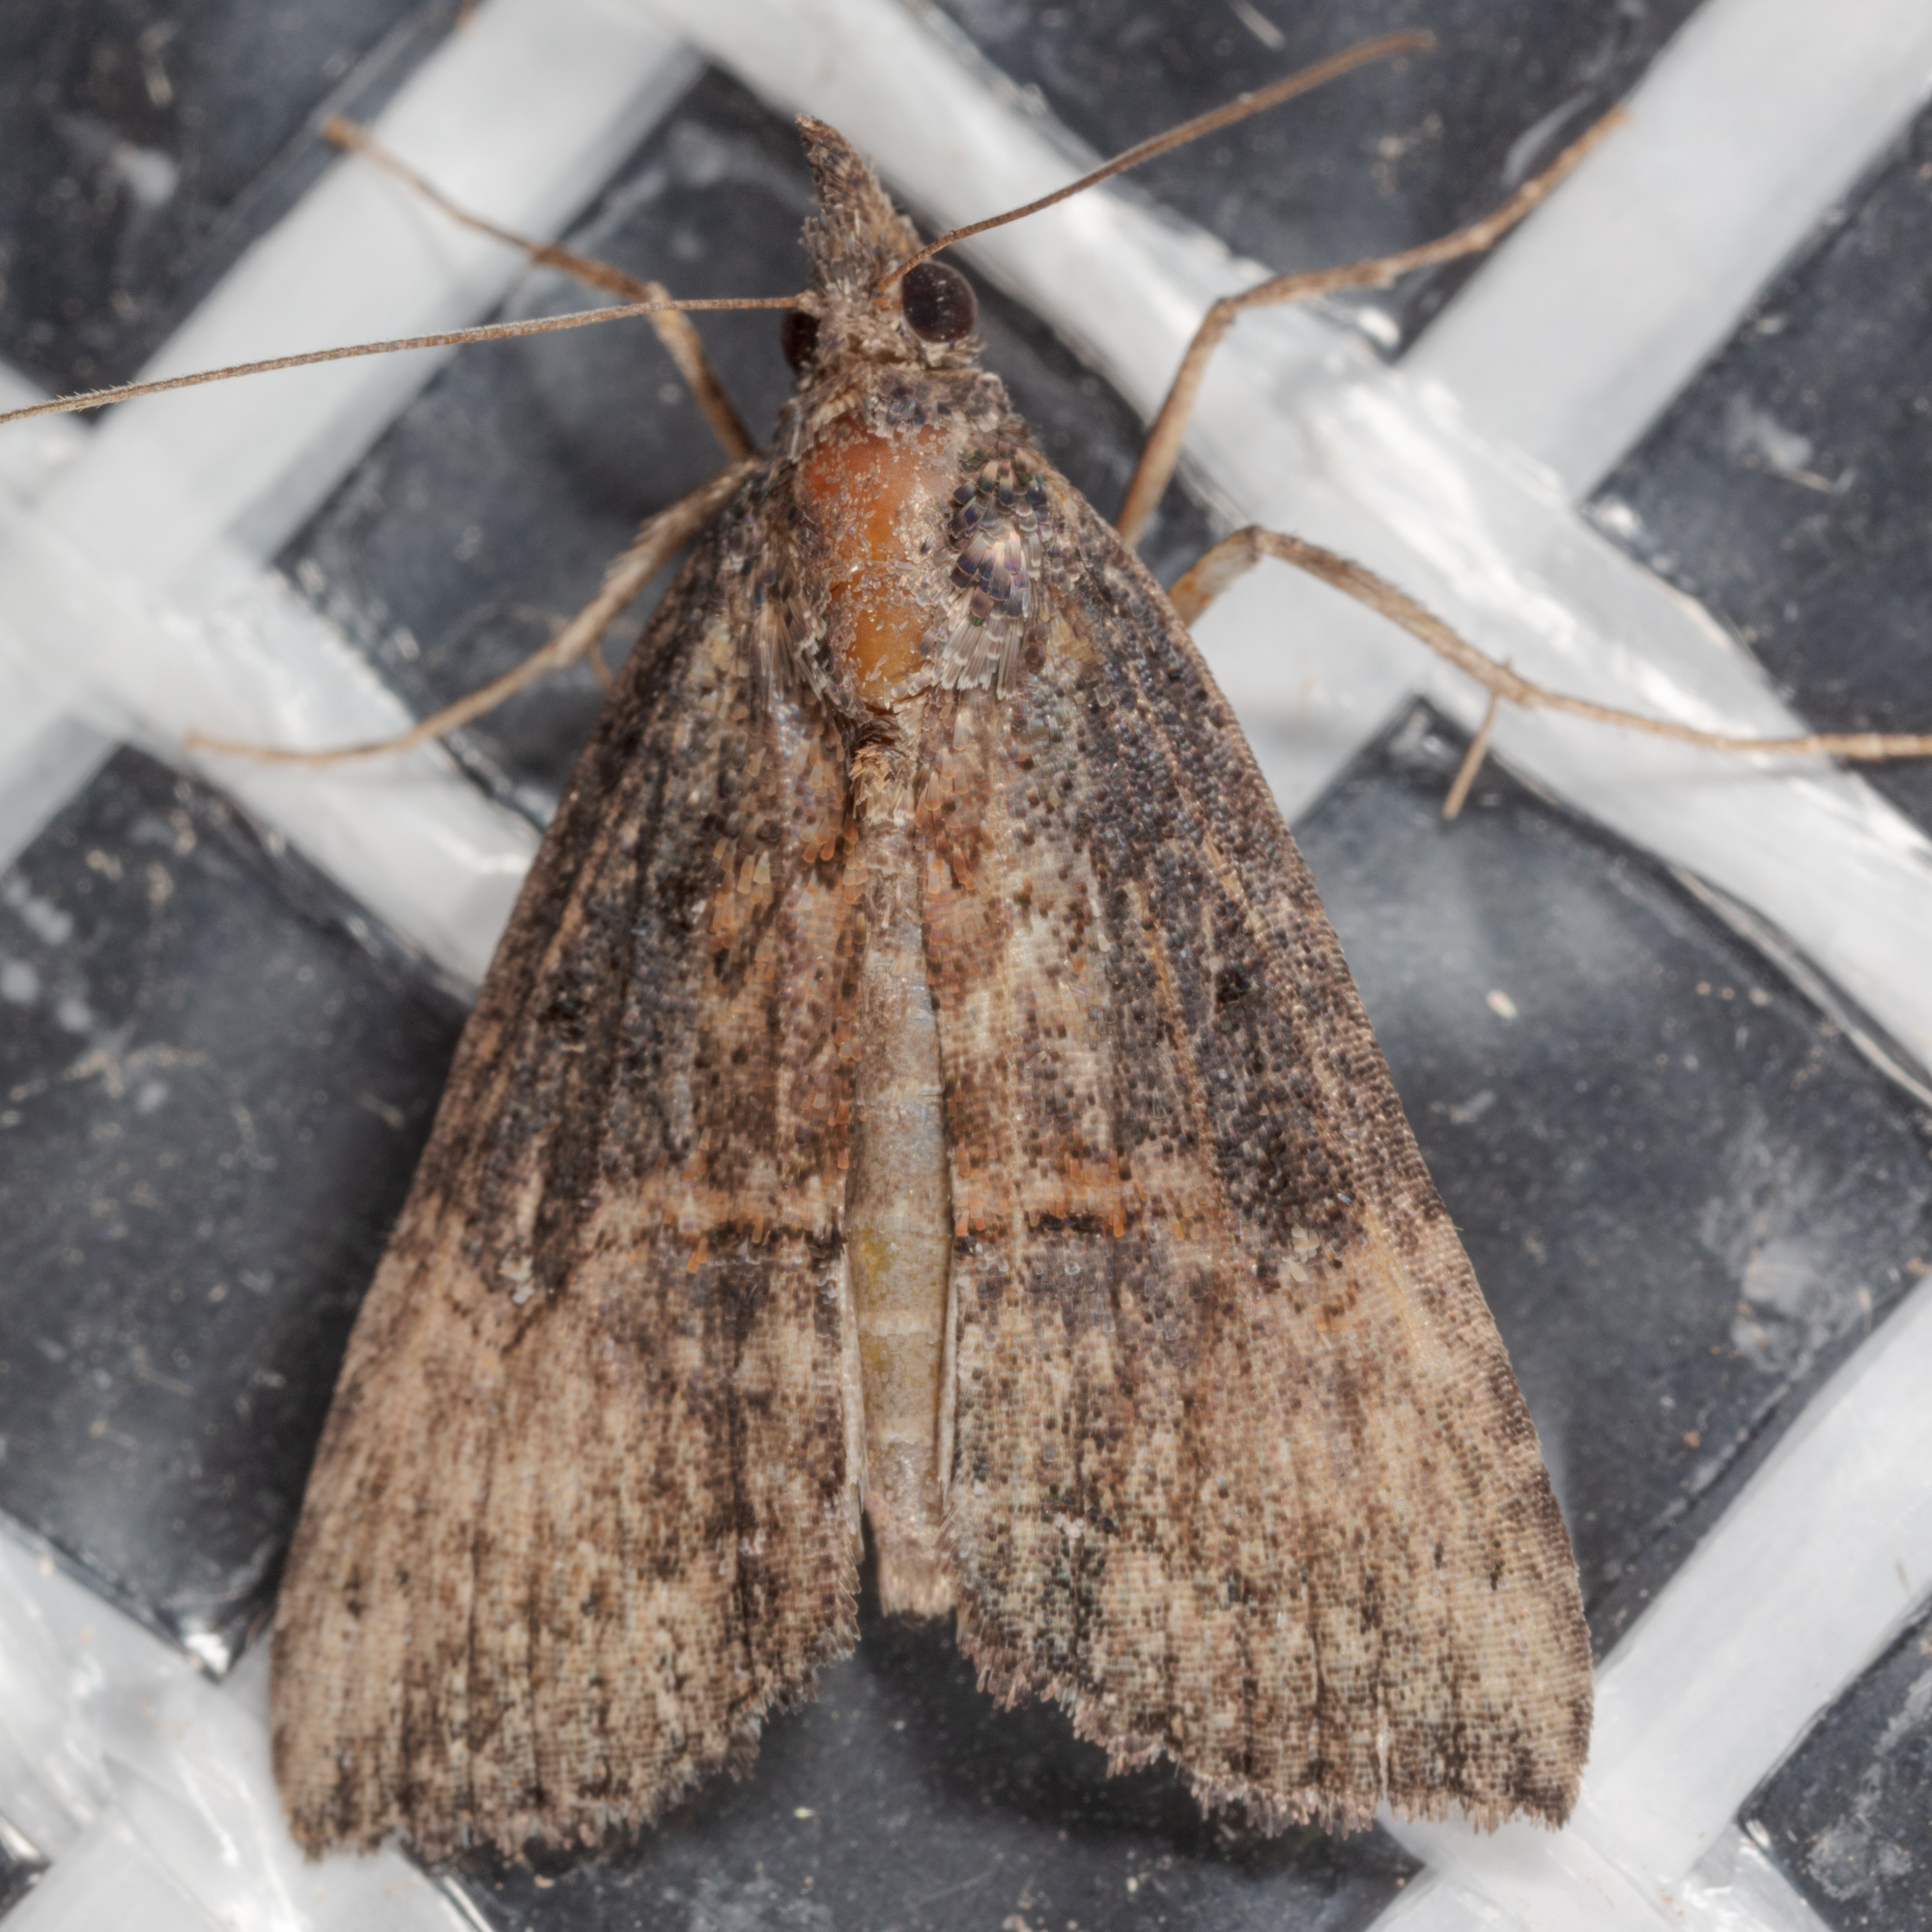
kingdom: Animalia
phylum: Arthropoda
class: Insecta
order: Lepidoptera
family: Erebidae
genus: Hypena
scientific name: Hypena scabra
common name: Green cloverworm
